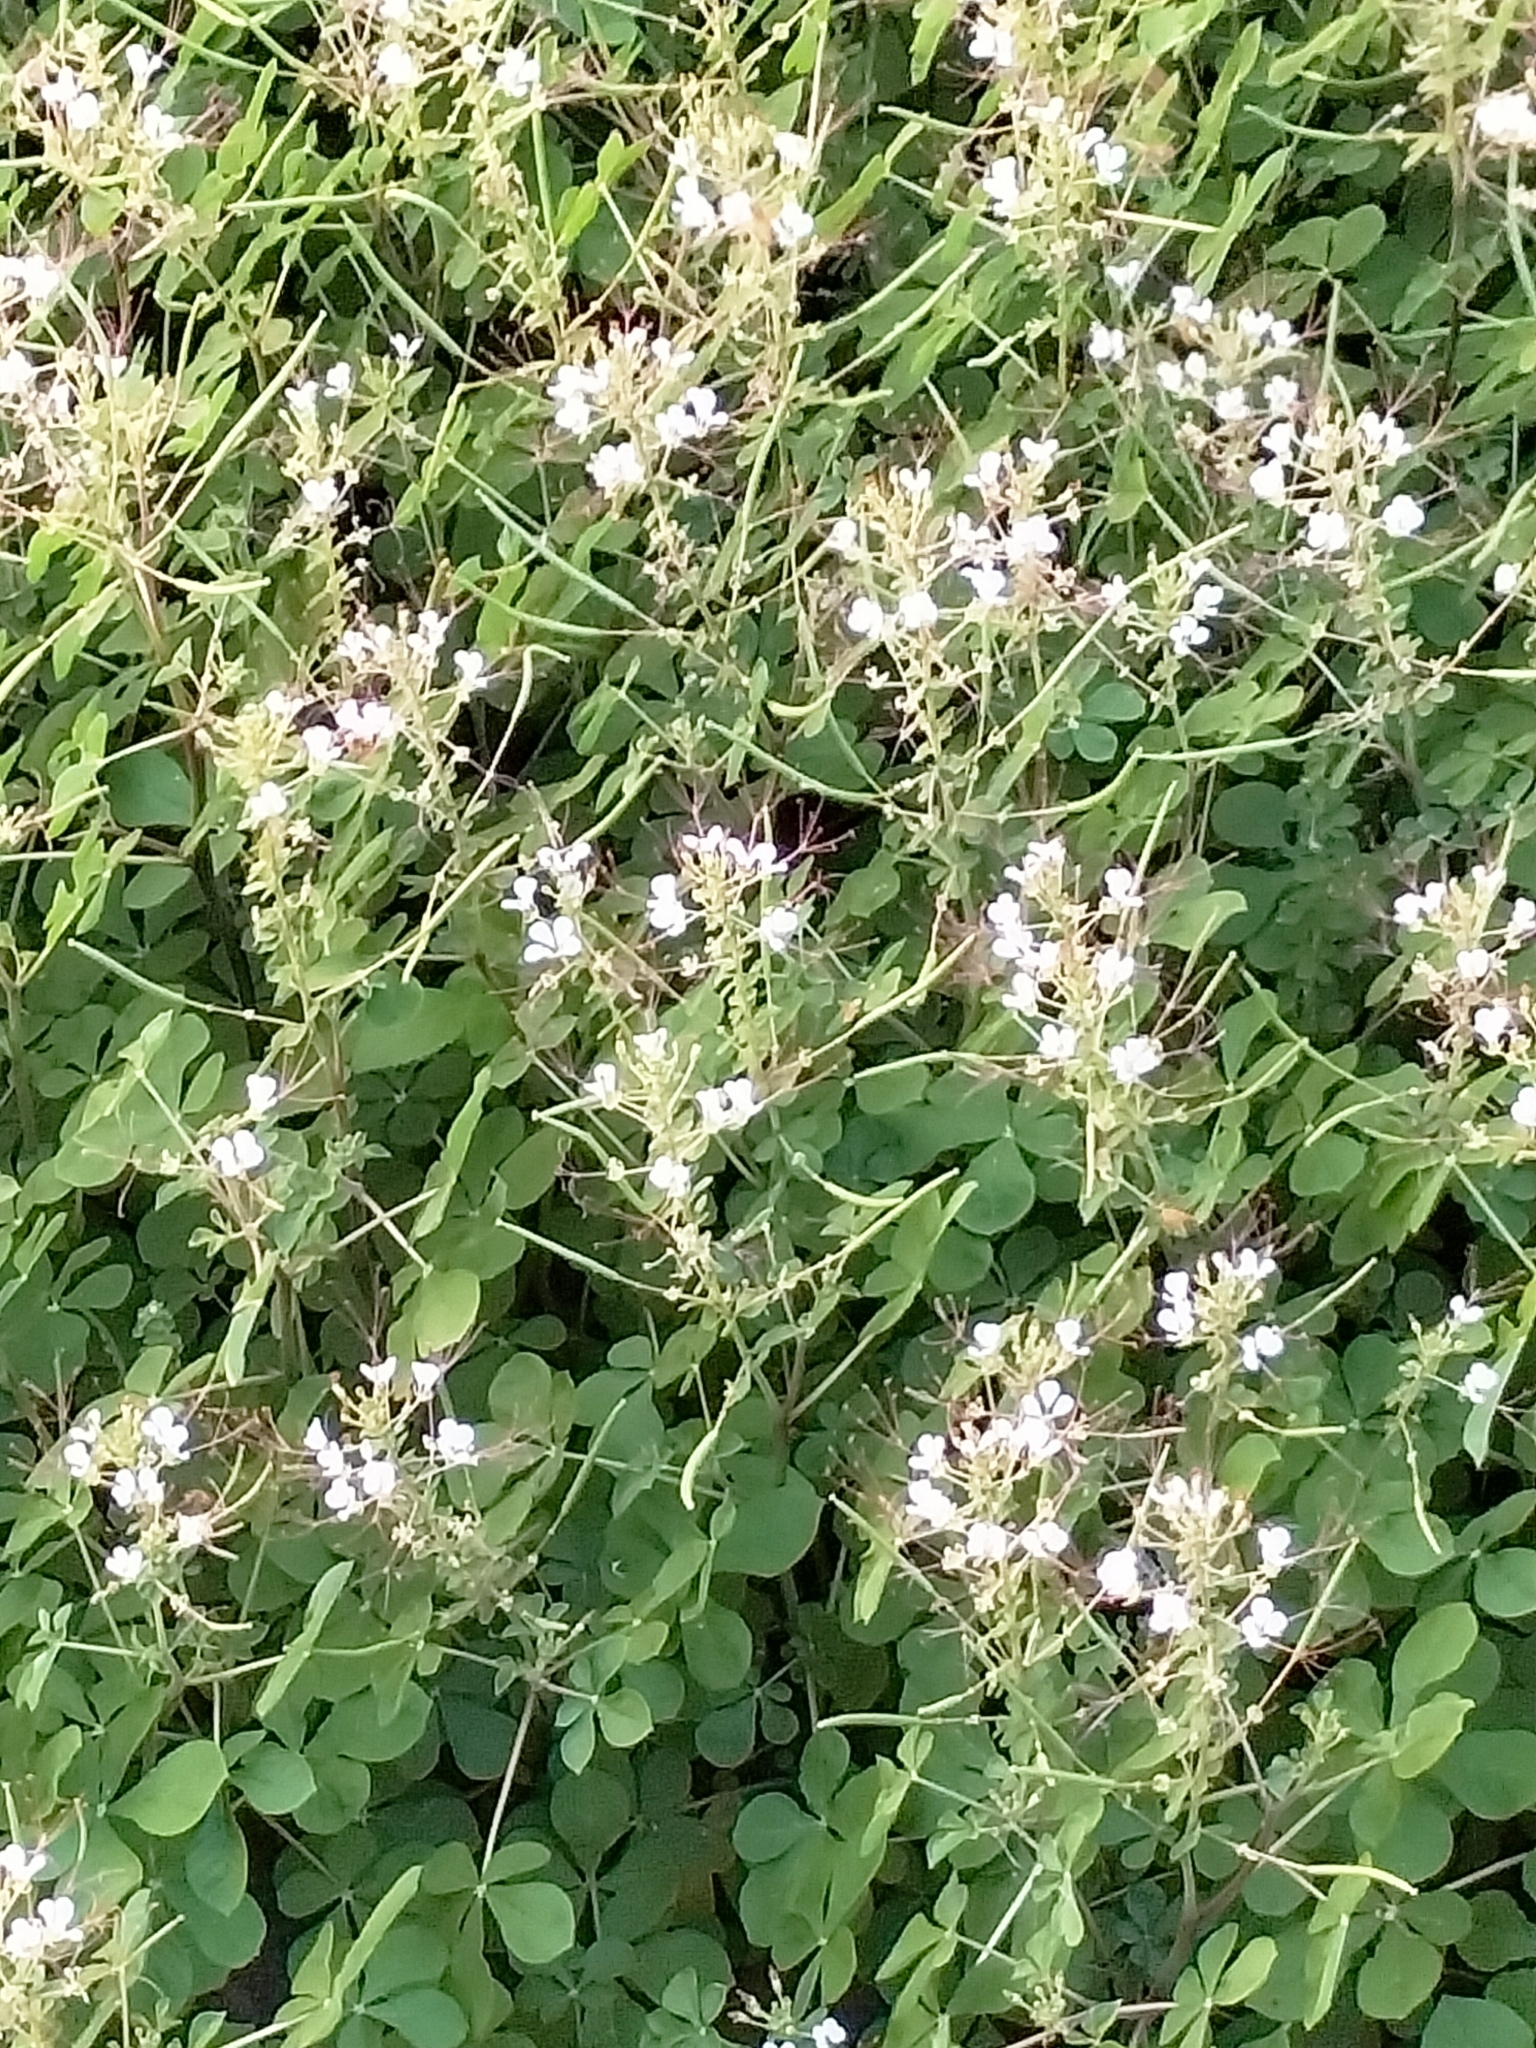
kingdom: Plantae
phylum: Tracheophyta
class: Magnoliopsida
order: Brassicales
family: Cleomaceae
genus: Gynandropsis
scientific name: Gynandropsis gynandra
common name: Spiderwisp
